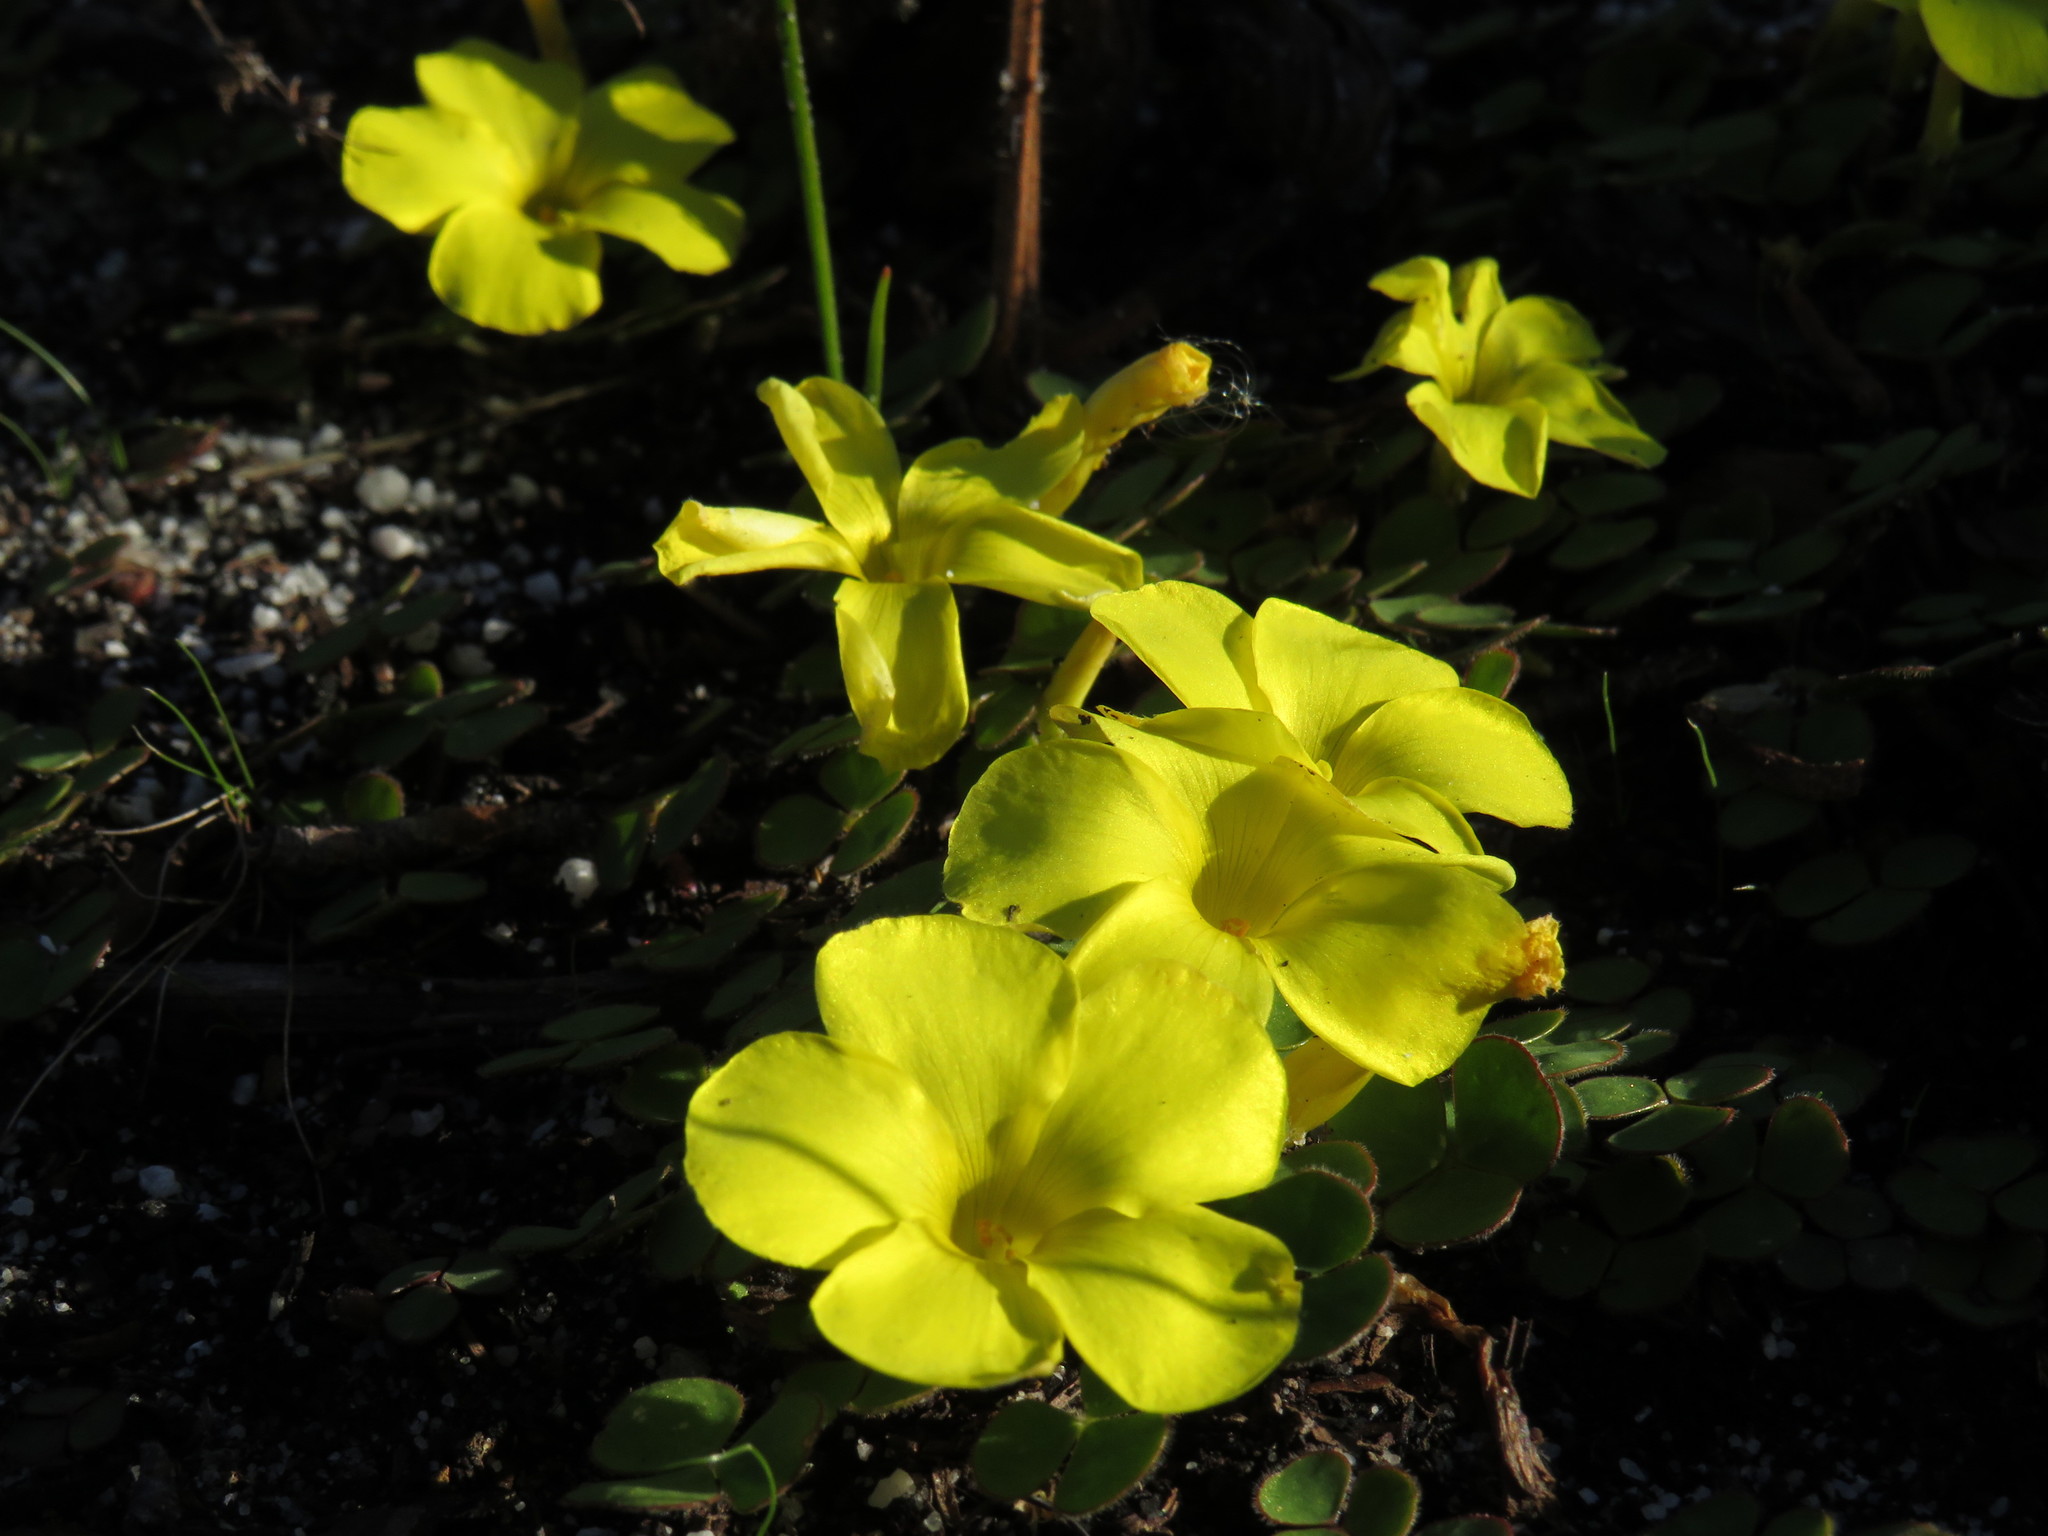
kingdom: Plantae
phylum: Tracheophyta
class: Magnoliopsida
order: Oxalidales
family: Oxalidaceae
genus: Oxalis
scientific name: Oxalis luteola
